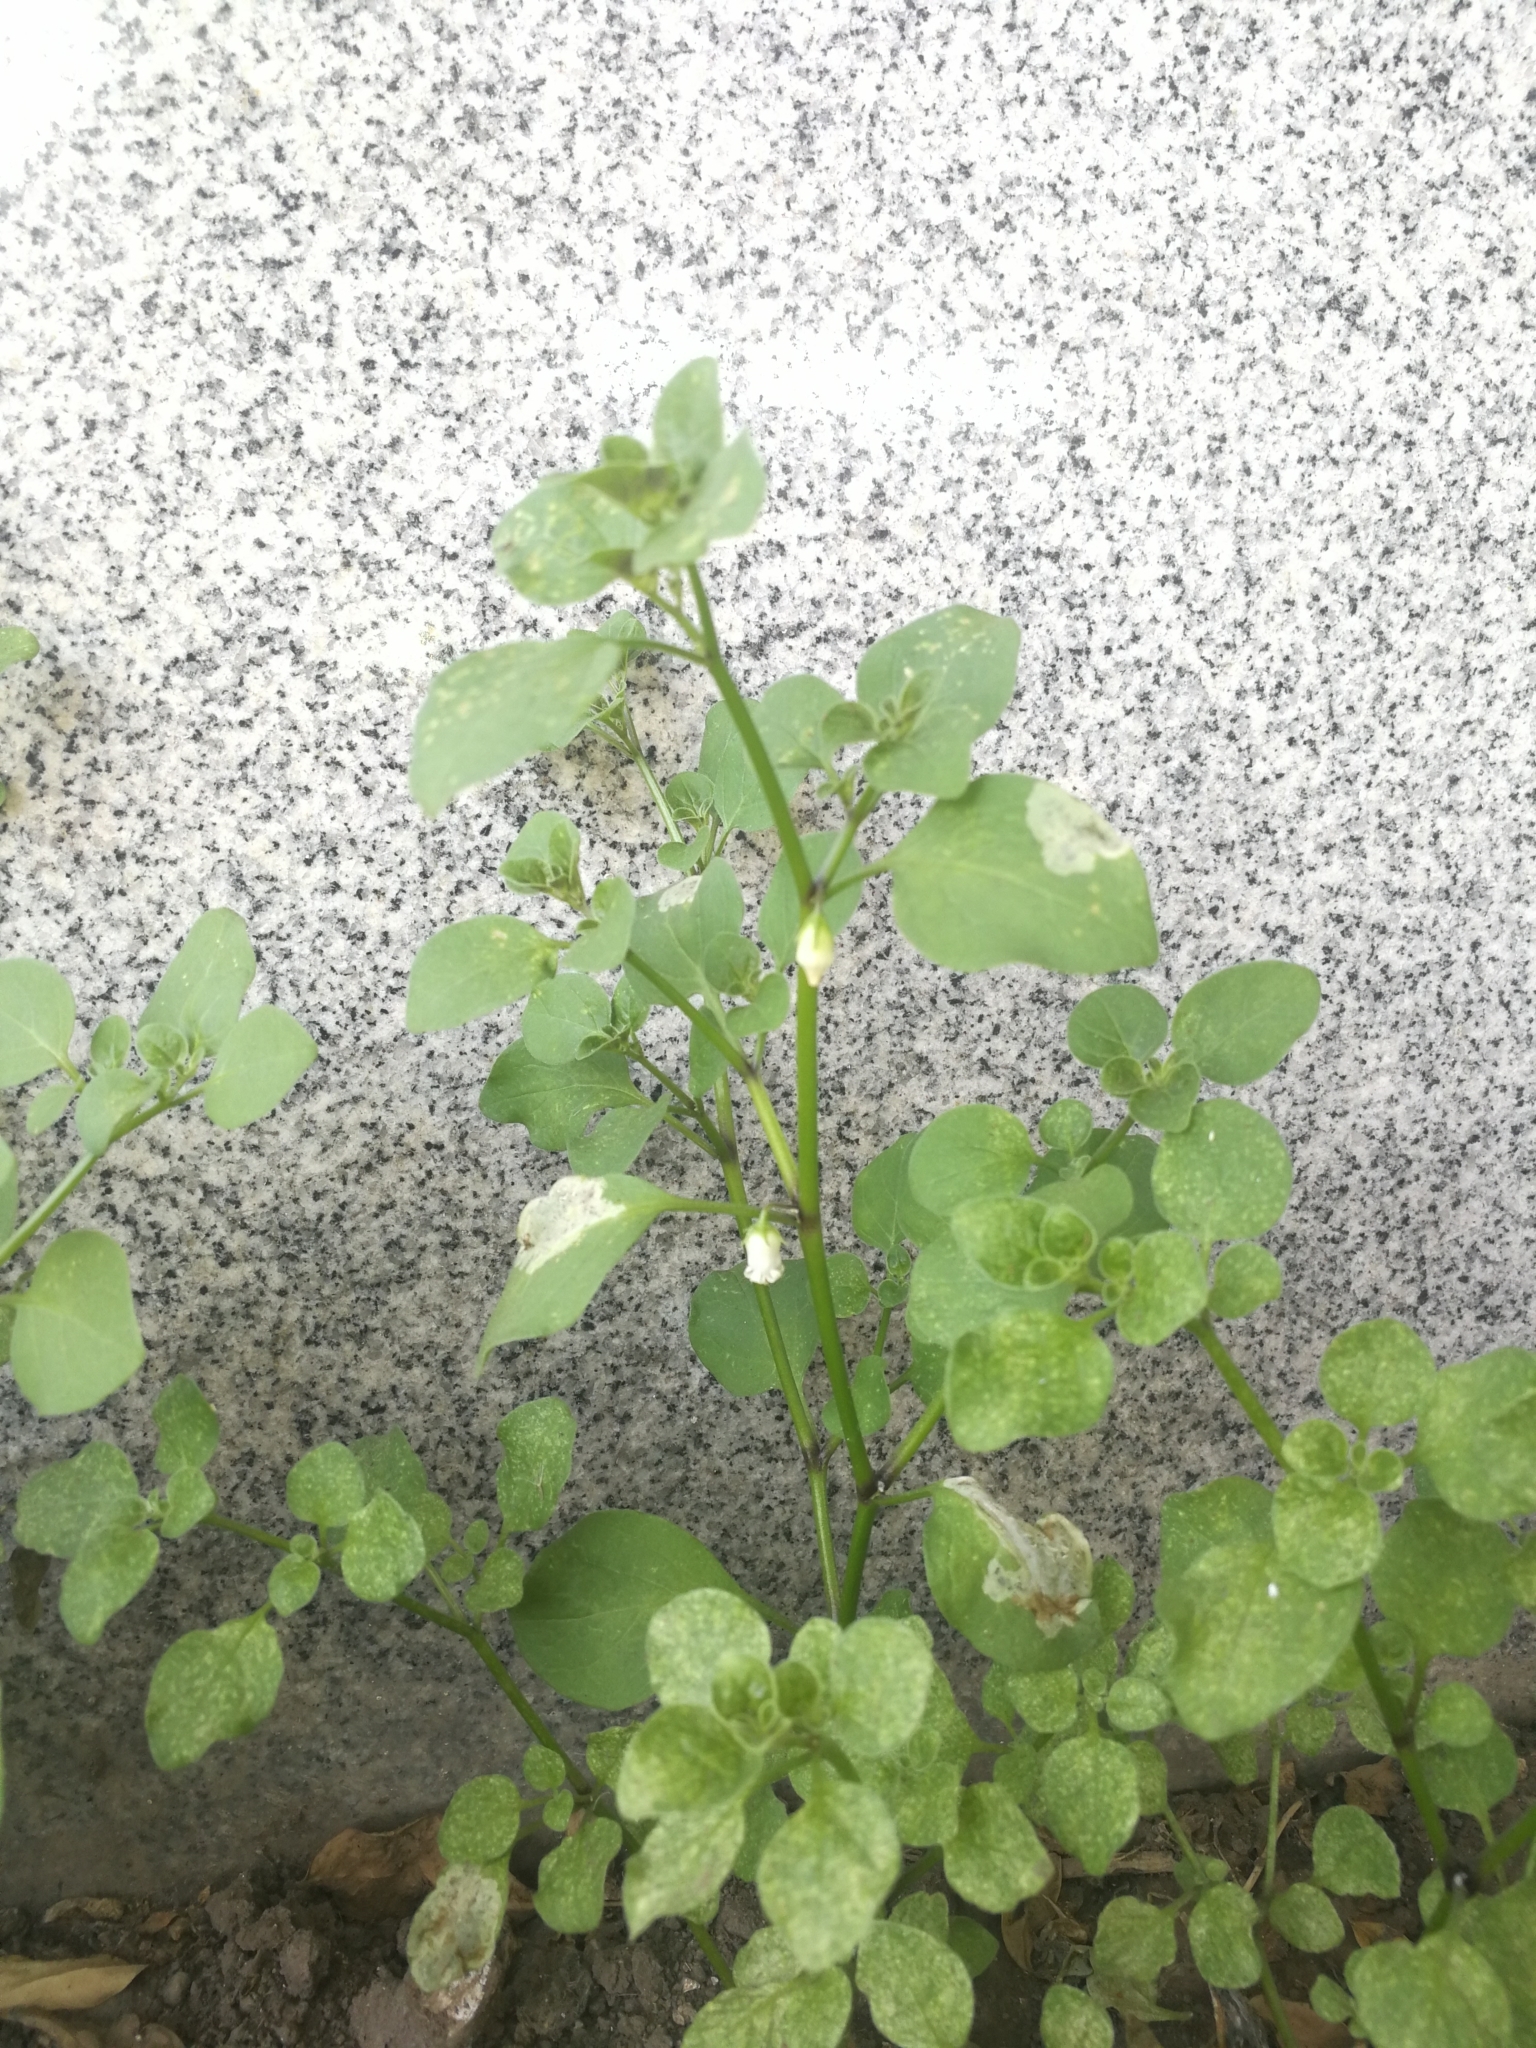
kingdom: Plantae
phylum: Tracheophyta
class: Magnoliopsida
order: Solanales
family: Solanaceae
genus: Salpichroa
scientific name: Salpichroa origanifolia
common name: Lily-of-the-valley-vine
